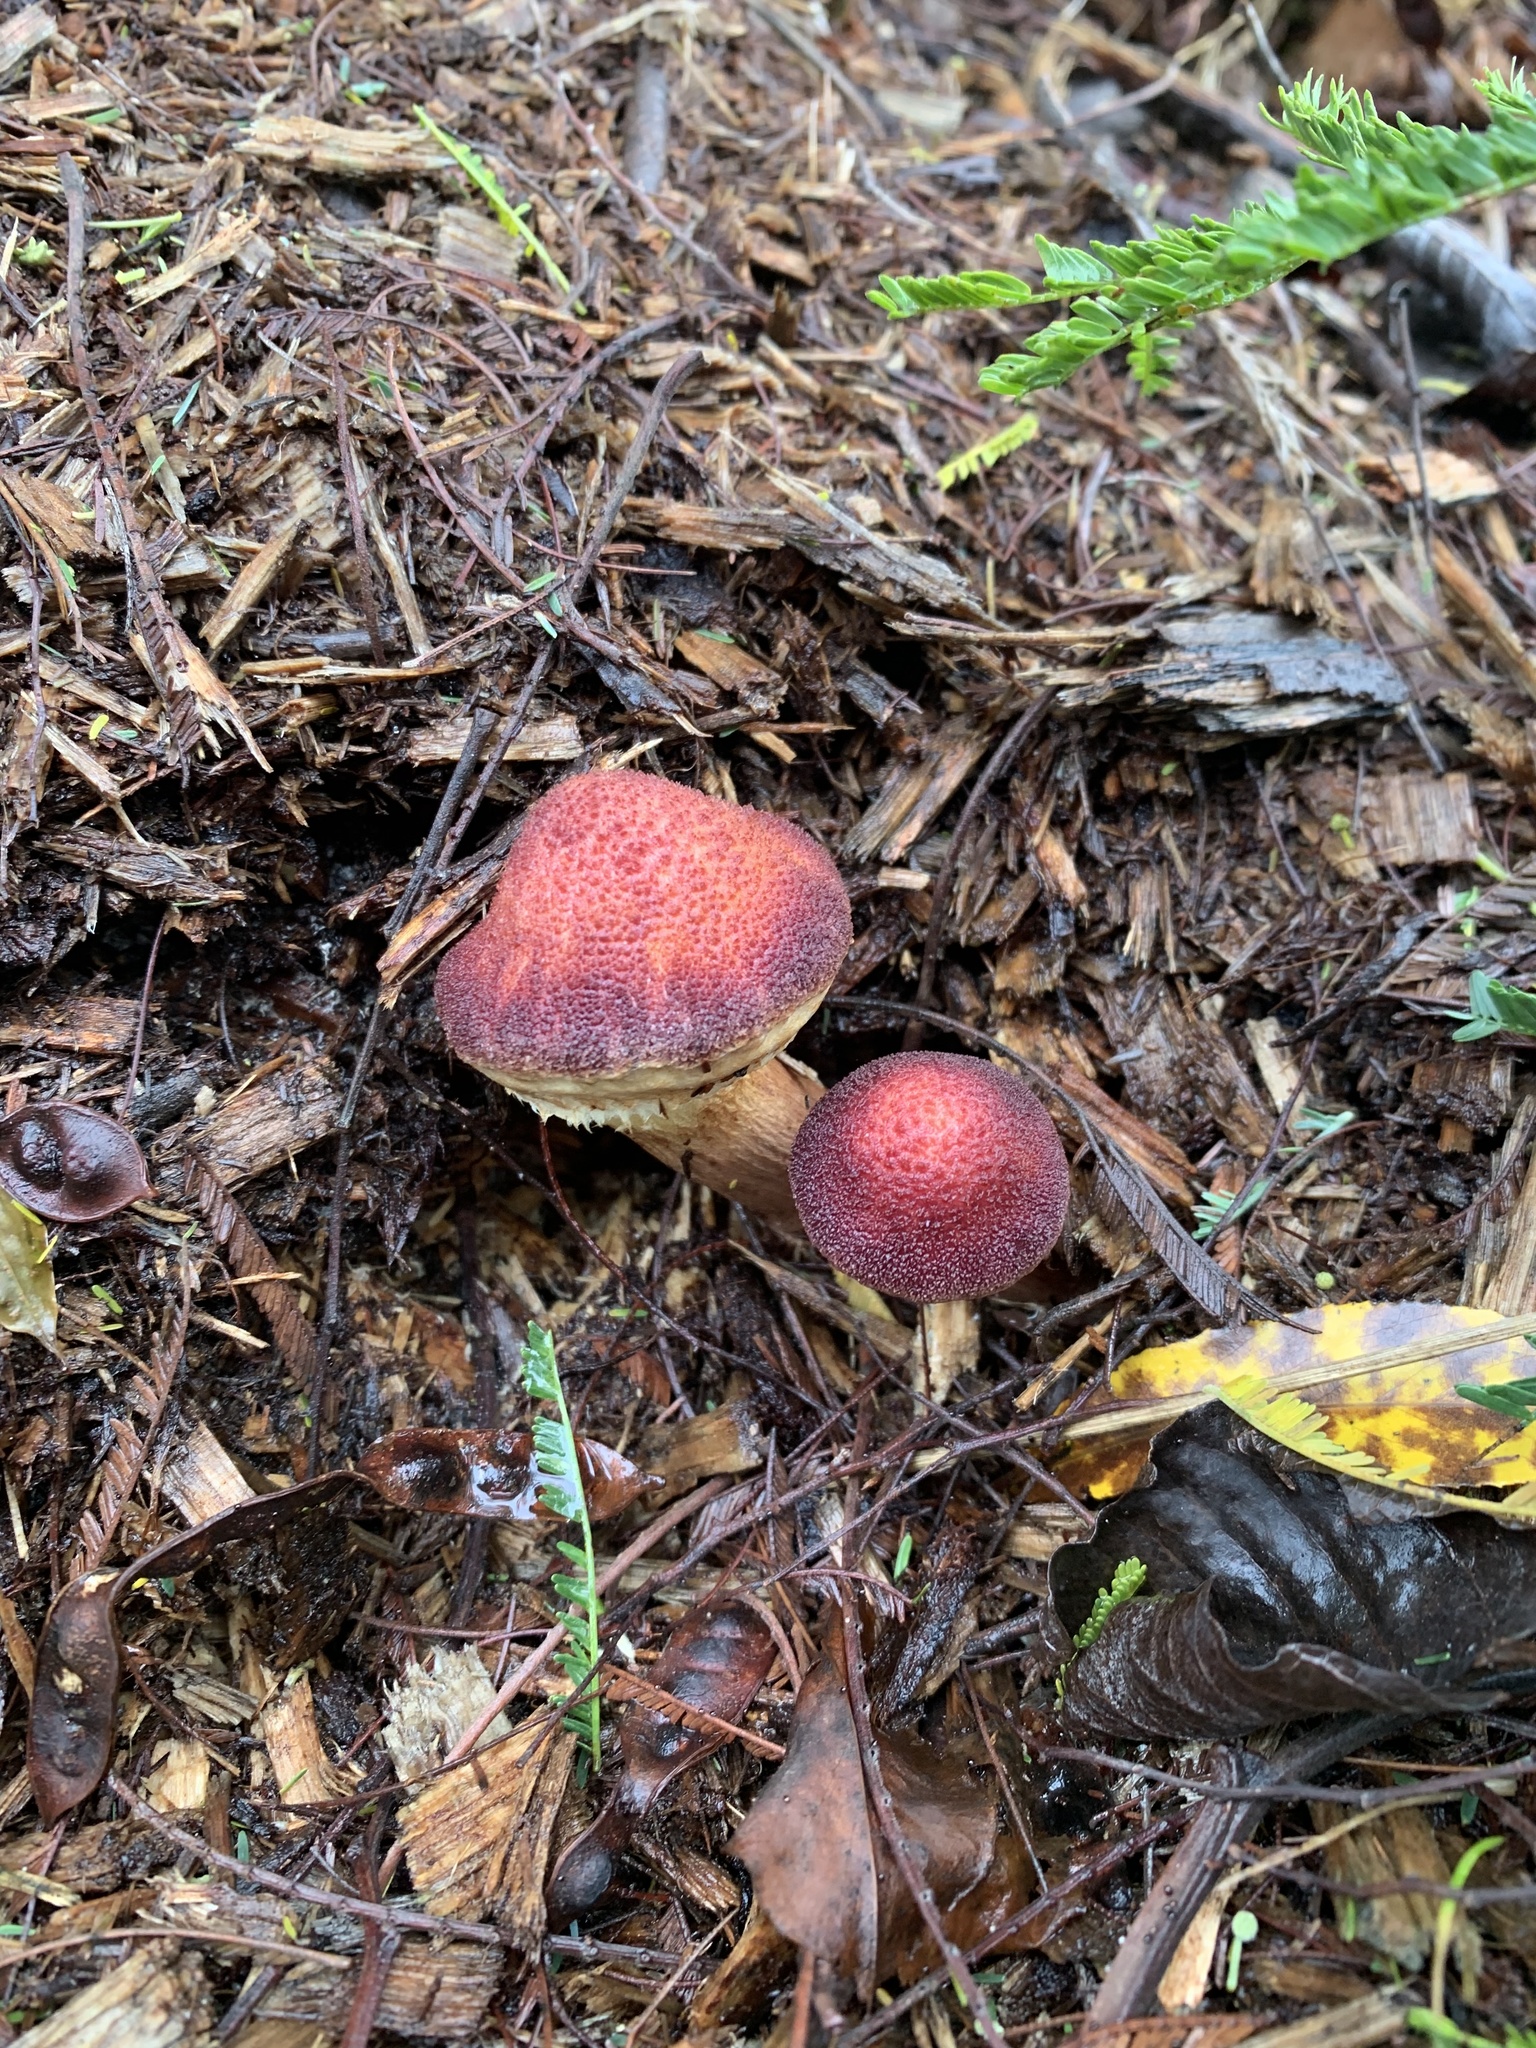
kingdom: Fungi
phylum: Basidiomycota
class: Agaricomycetes
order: Agaricales
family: Hymenogastraceae
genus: Gymnopilus
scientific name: Gymnopilus purpuratus
